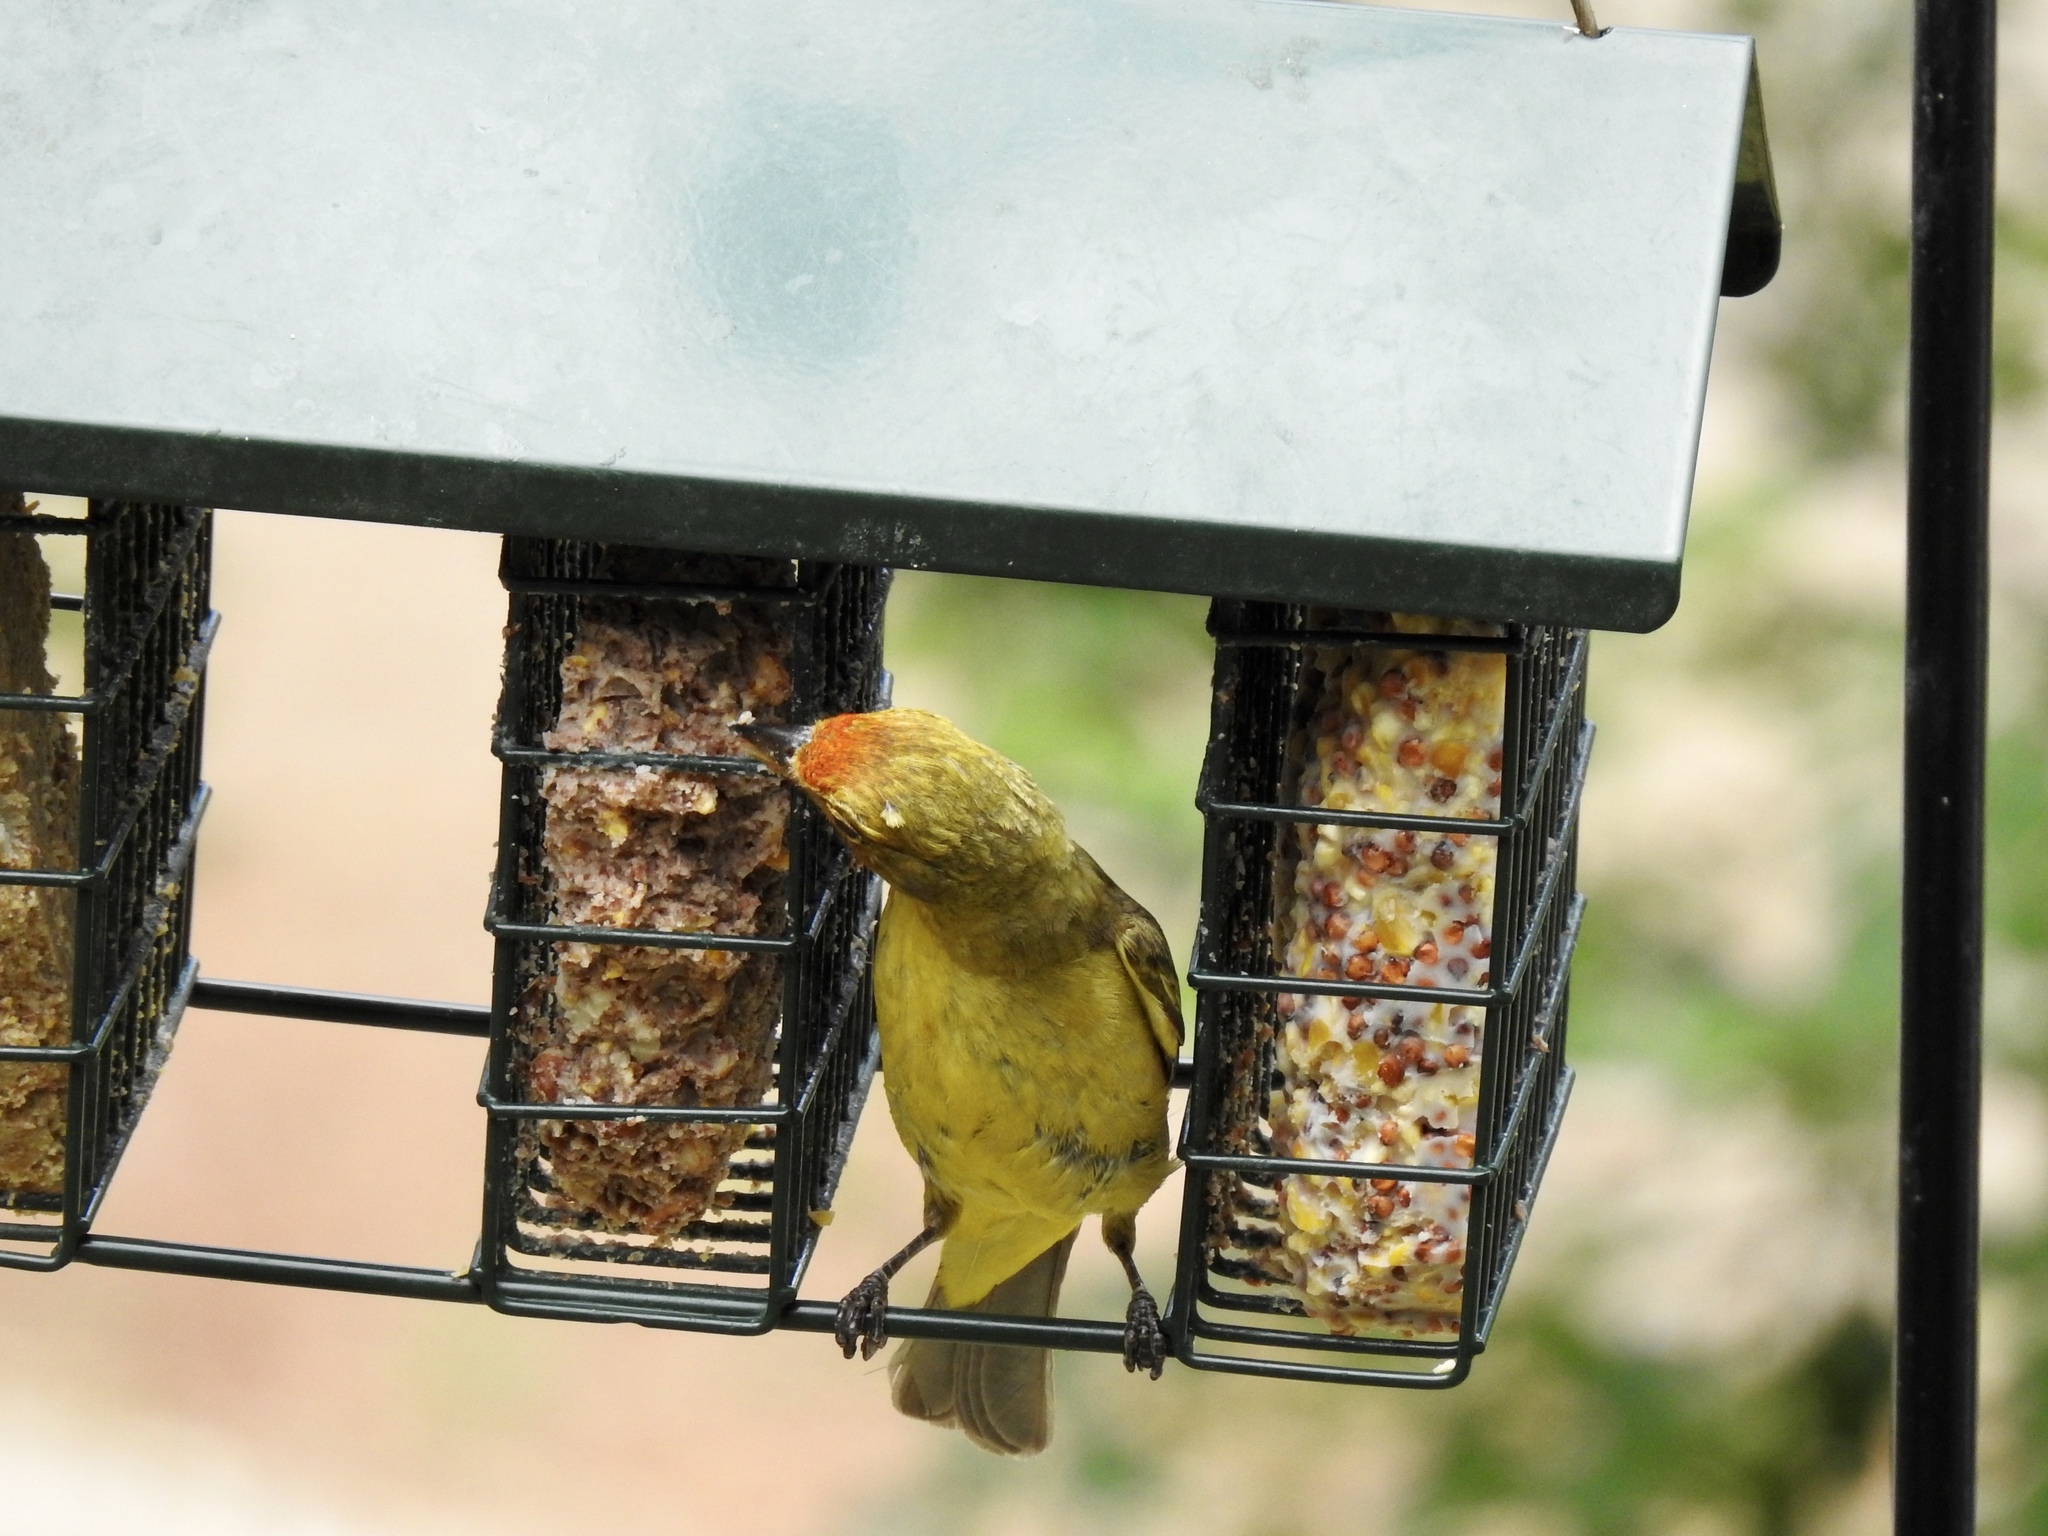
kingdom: Animalia
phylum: Chordata
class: Aves
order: Passeriformes
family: Cardinalidae
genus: Piranga
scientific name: Piranga ludoviciana
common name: Western tanager
